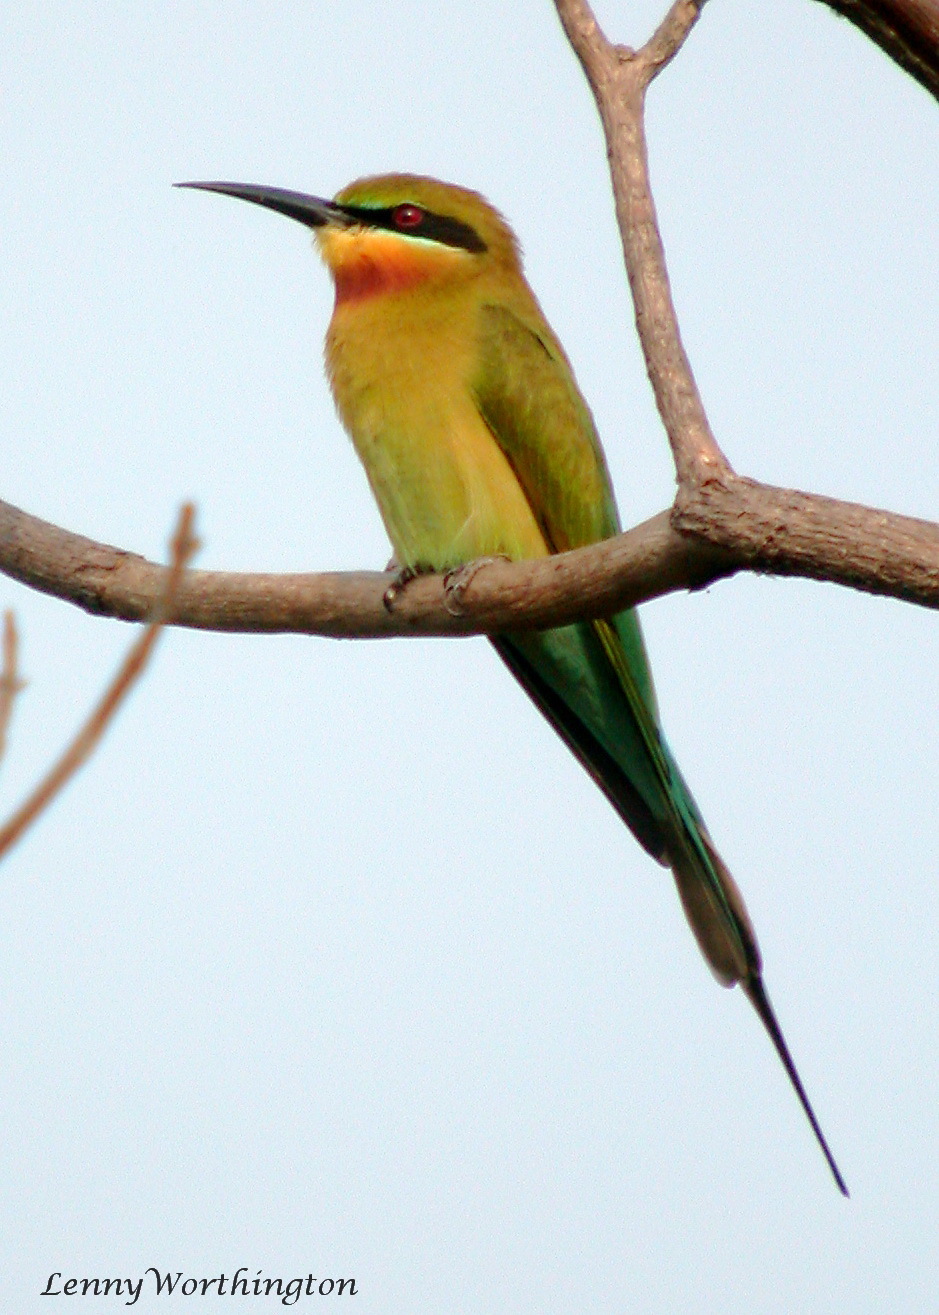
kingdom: Animalia
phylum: Chordata
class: Aves
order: Coraciiformes
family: Meropidae
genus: Merops
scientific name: Merops philippinus
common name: Blue-tailed bee-eater
